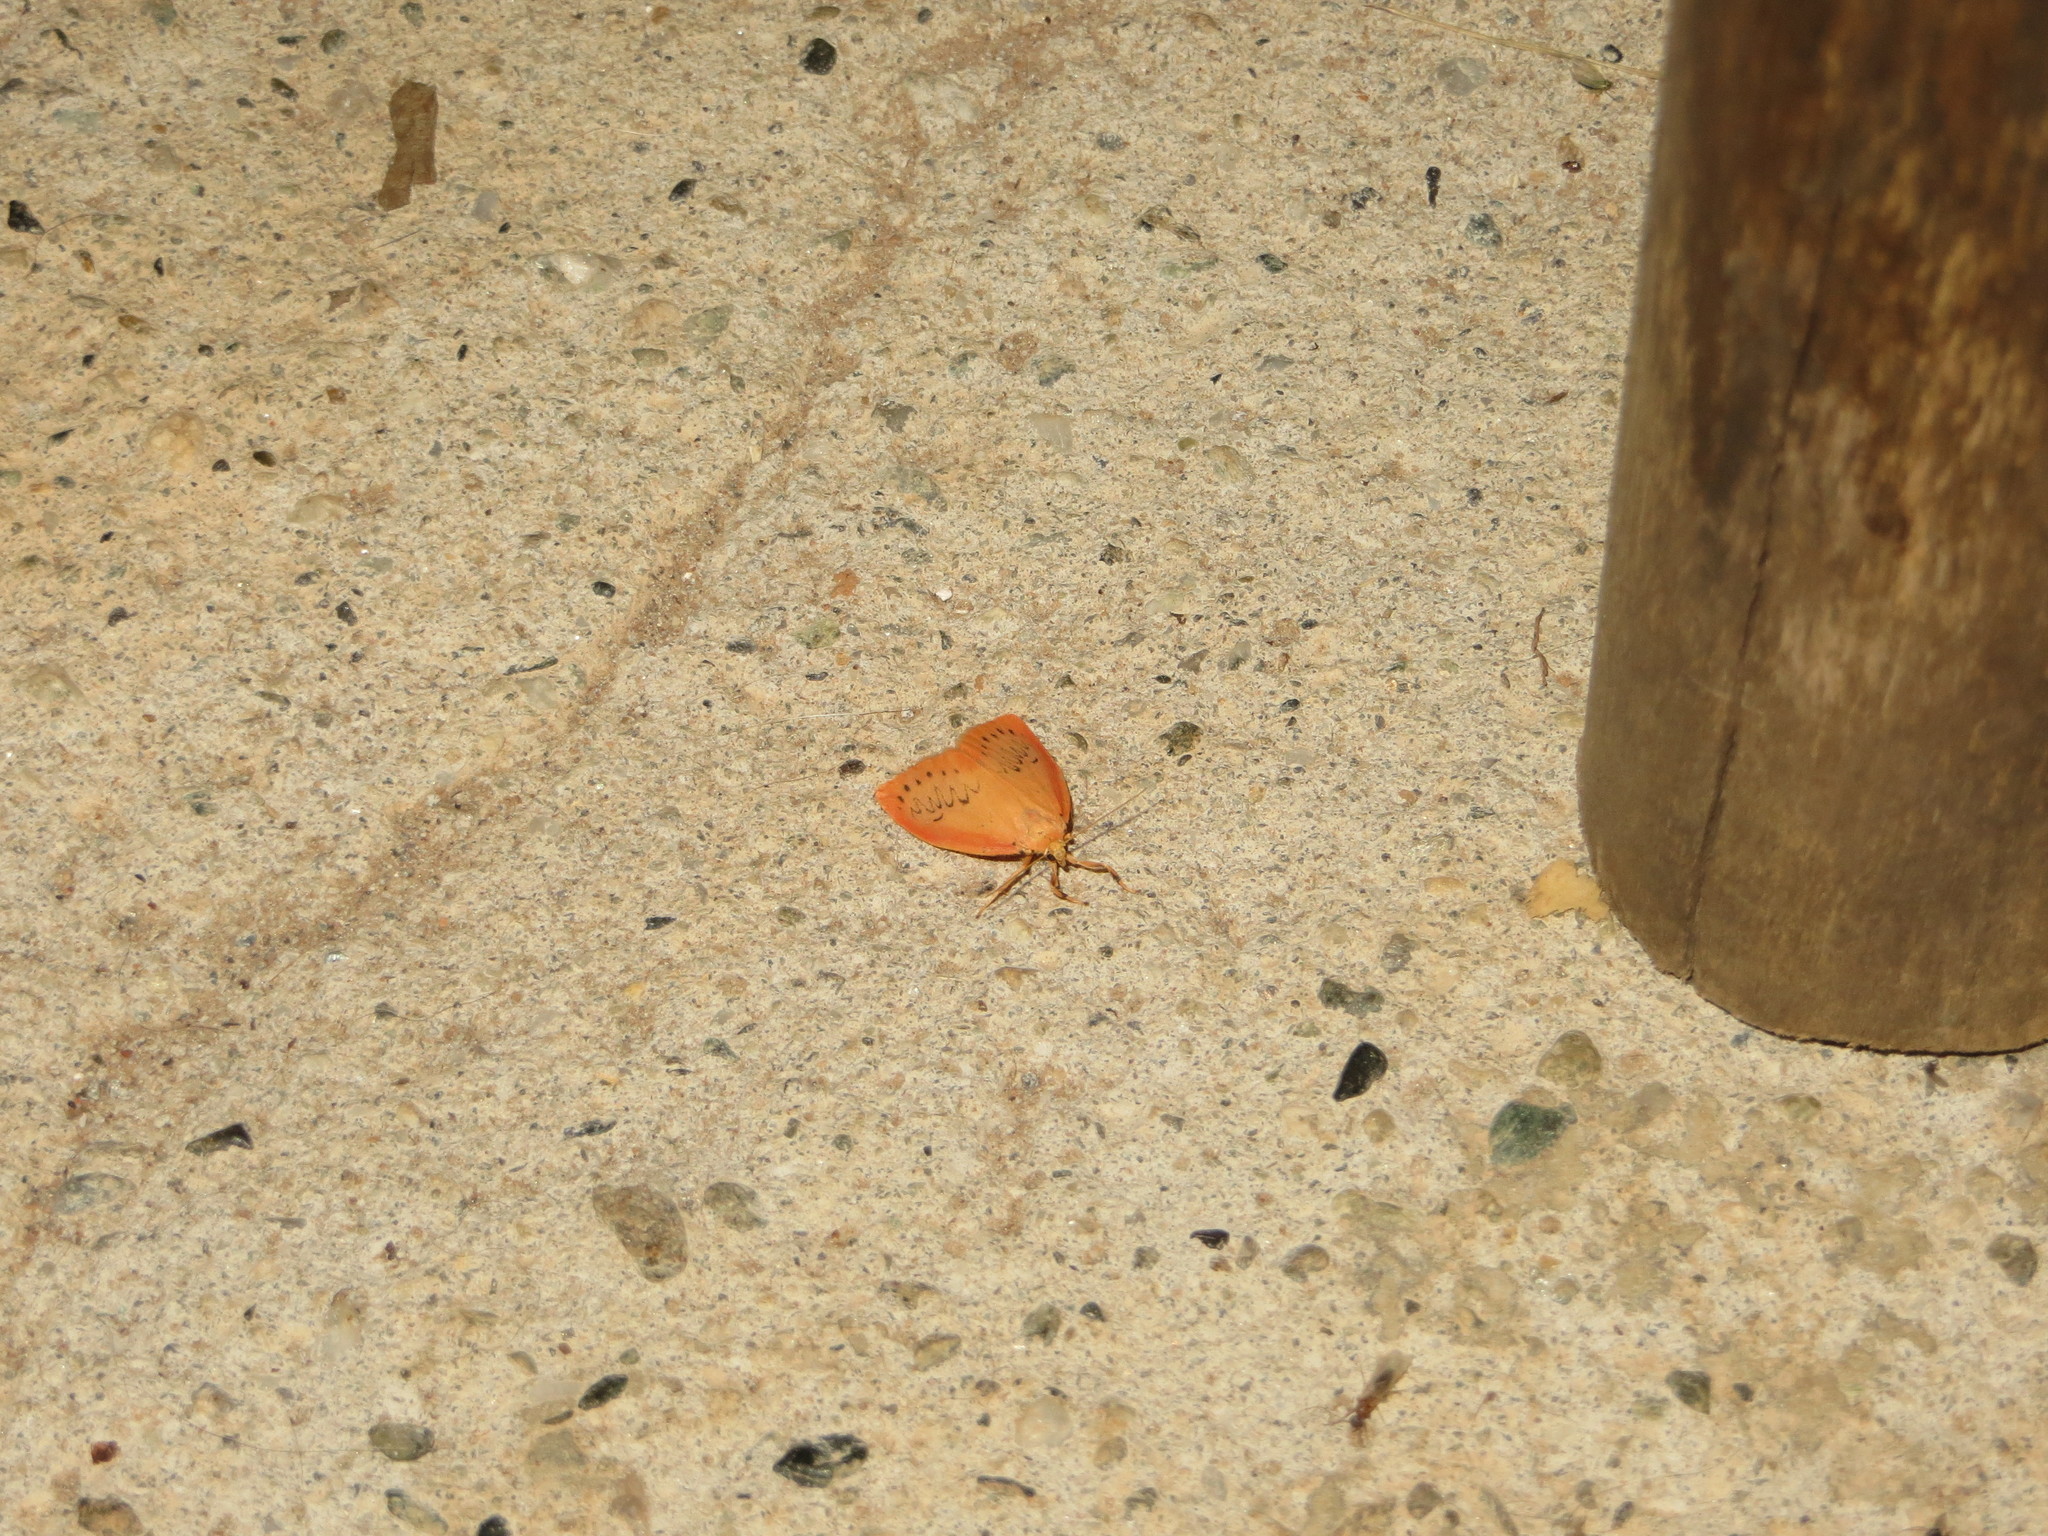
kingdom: Animalia
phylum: Arthropoda
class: Insecta
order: Lepidoptera
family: Erebidae
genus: Miltochrista
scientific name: Miltochrista miniata
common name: Rosy footman
